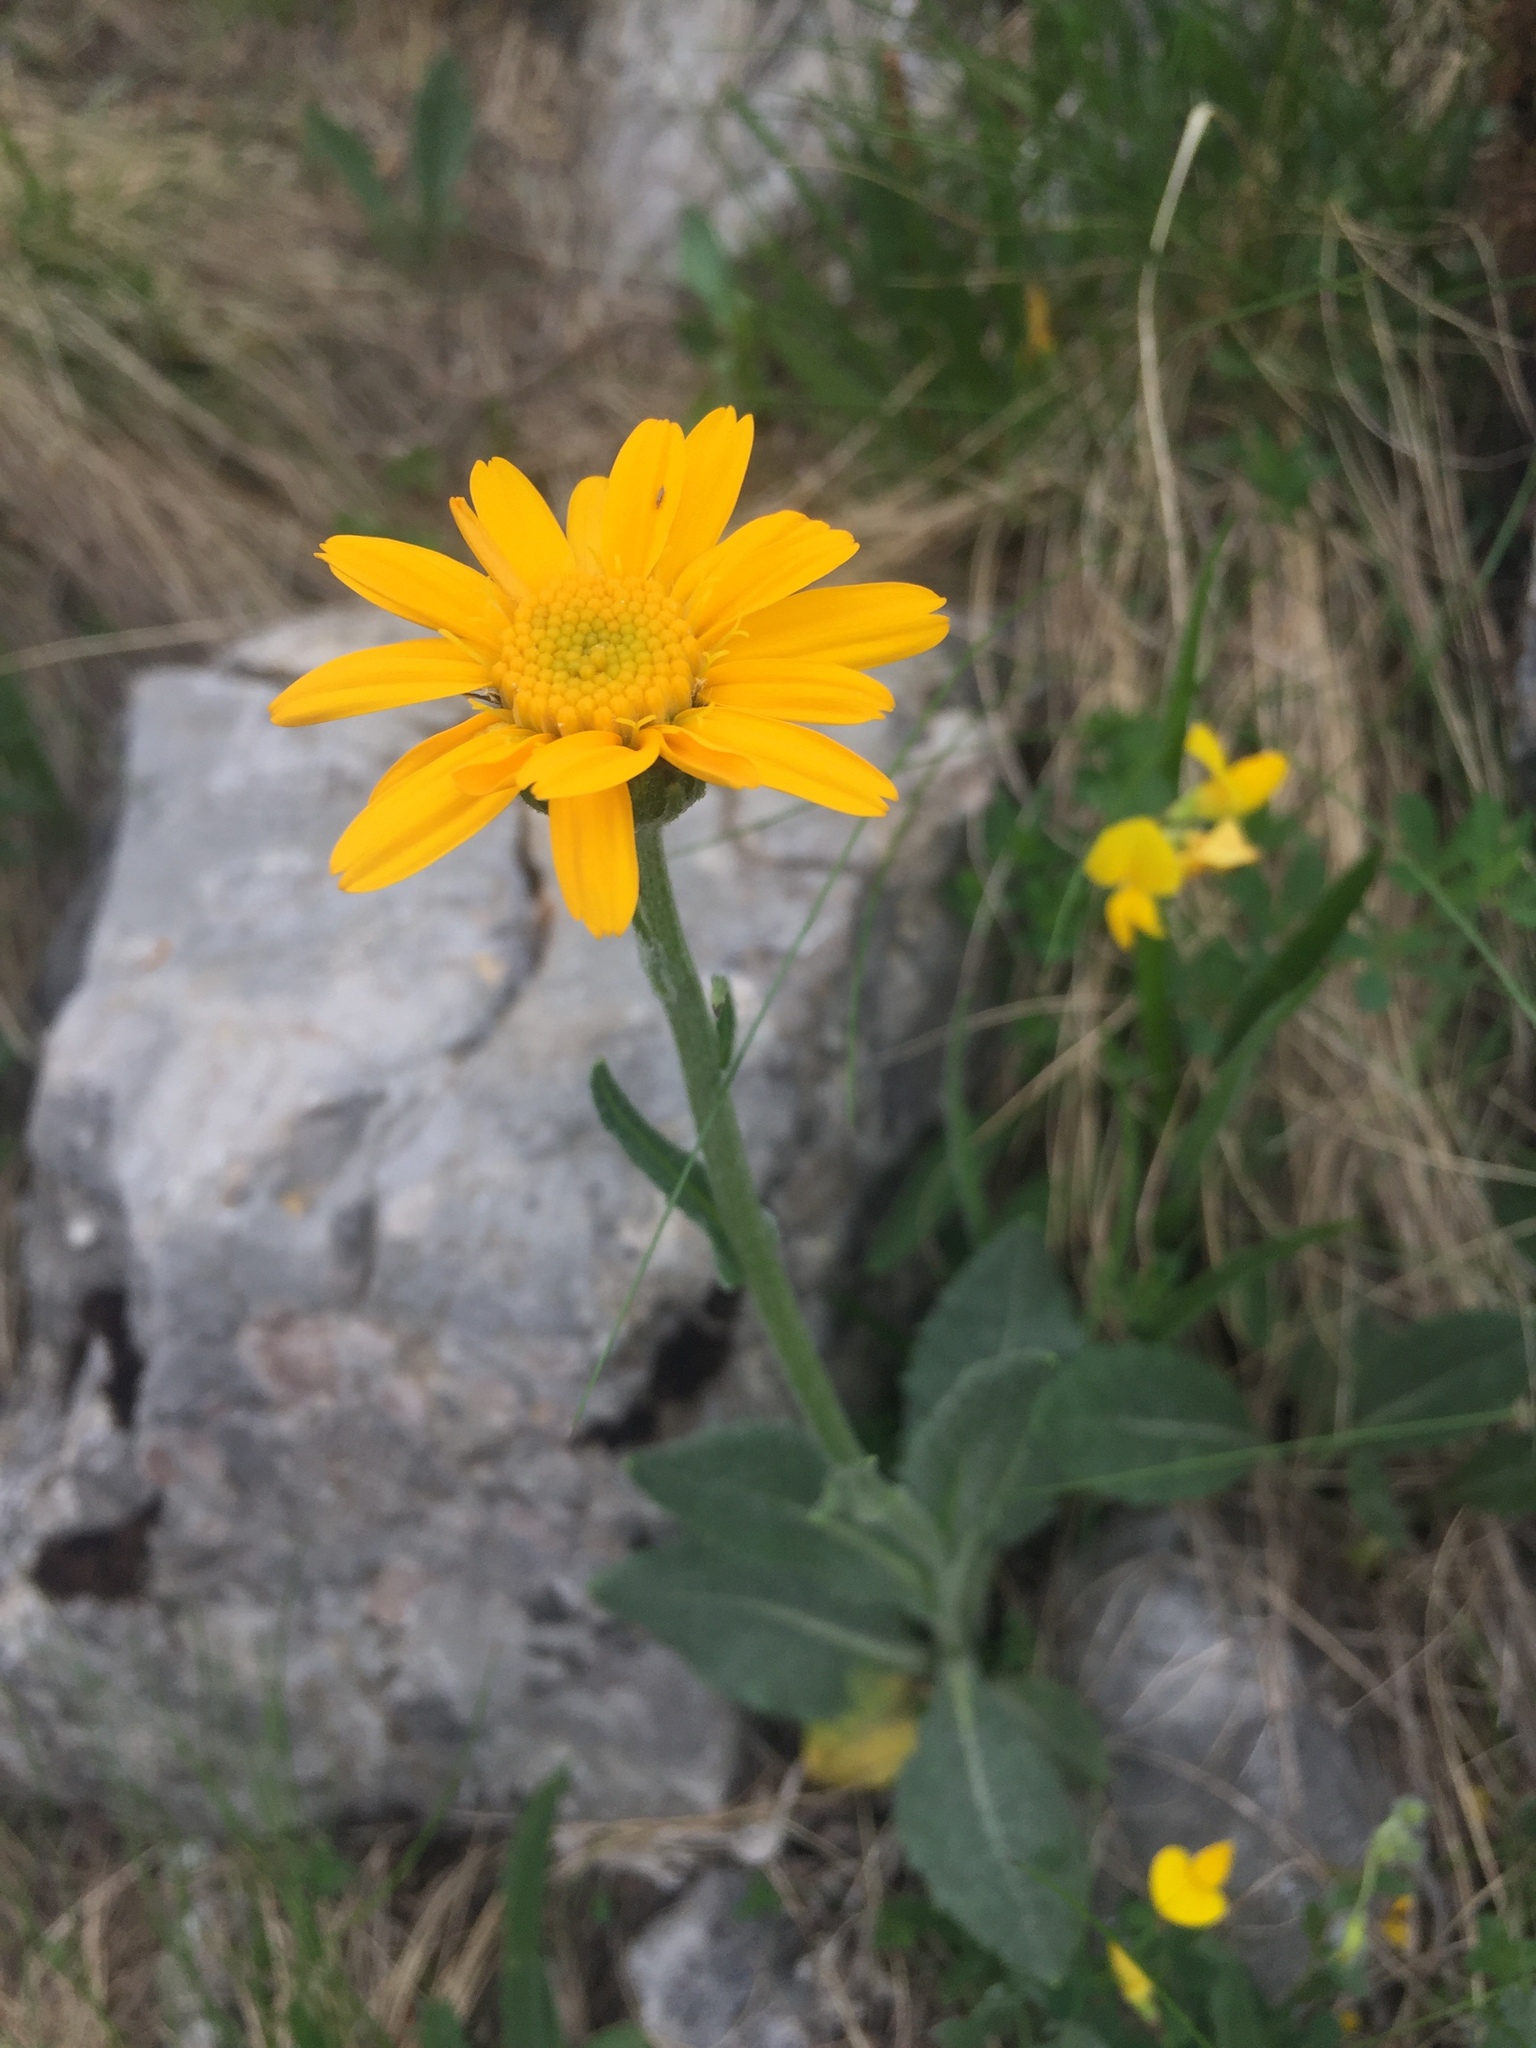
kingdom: Plantae
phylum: Tracheophyta
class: Magnoliopsida
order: Asterales
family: Asteraceae
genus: Senecio
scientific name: Senecio doronicum
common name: Chamois ragwort
